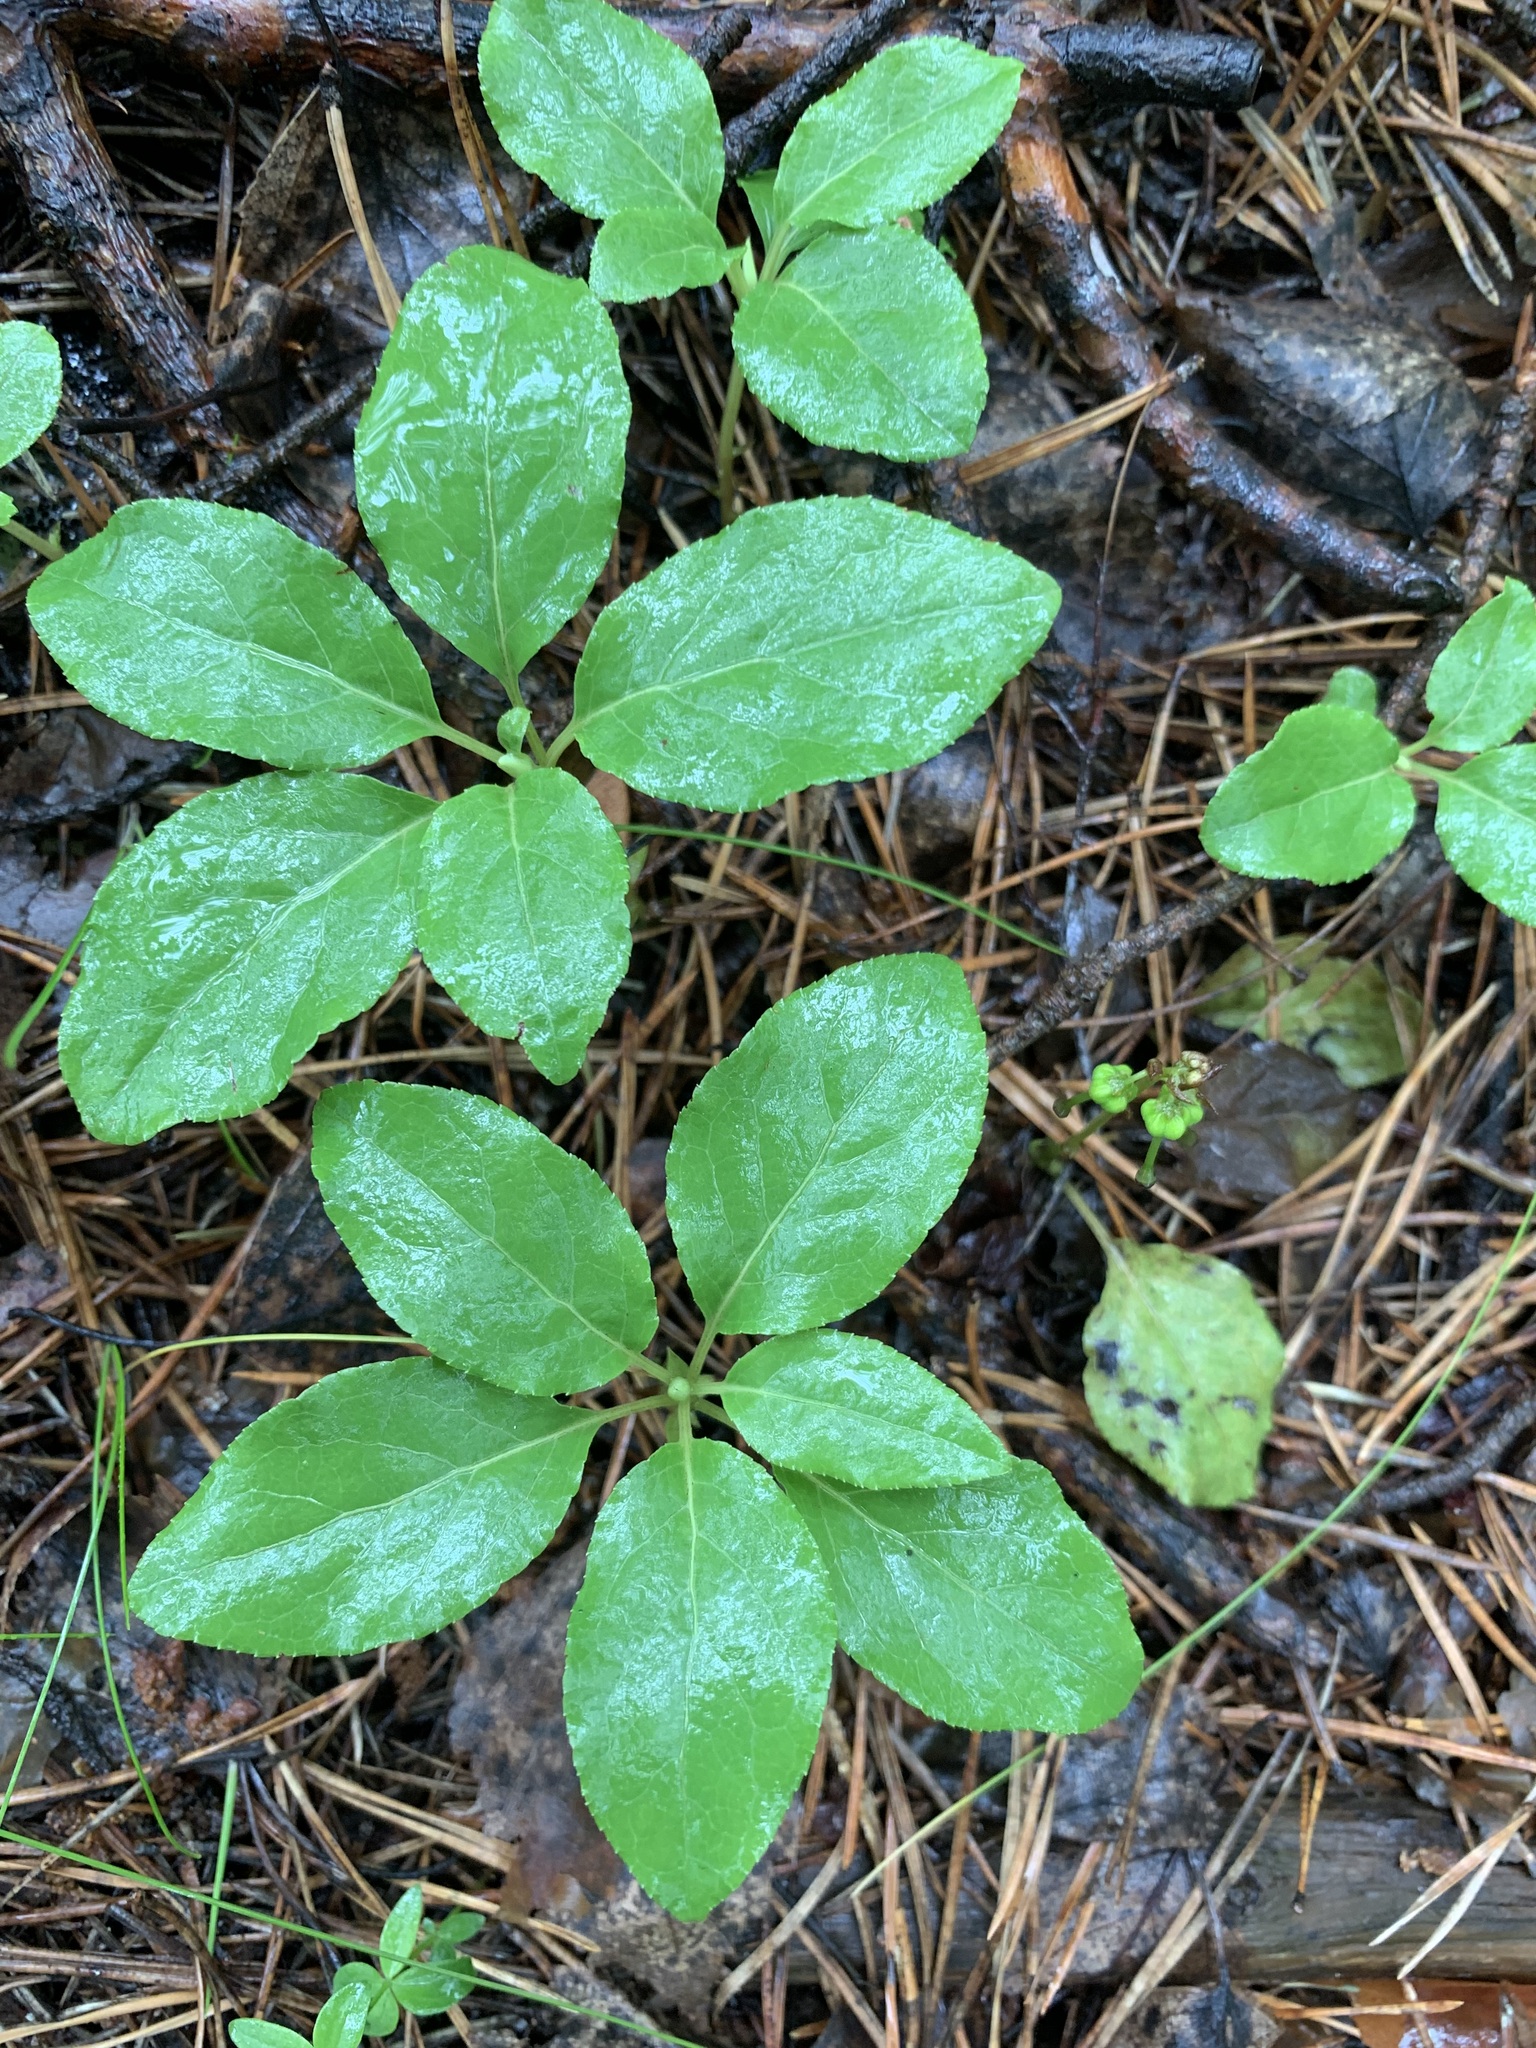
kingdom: Plantae
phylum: Tracheophyta
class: Magnoliopsida
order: Ericales
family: Ericaceae
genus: Orthilia
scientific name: Orthilia secunda
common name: One-sided orthilia
